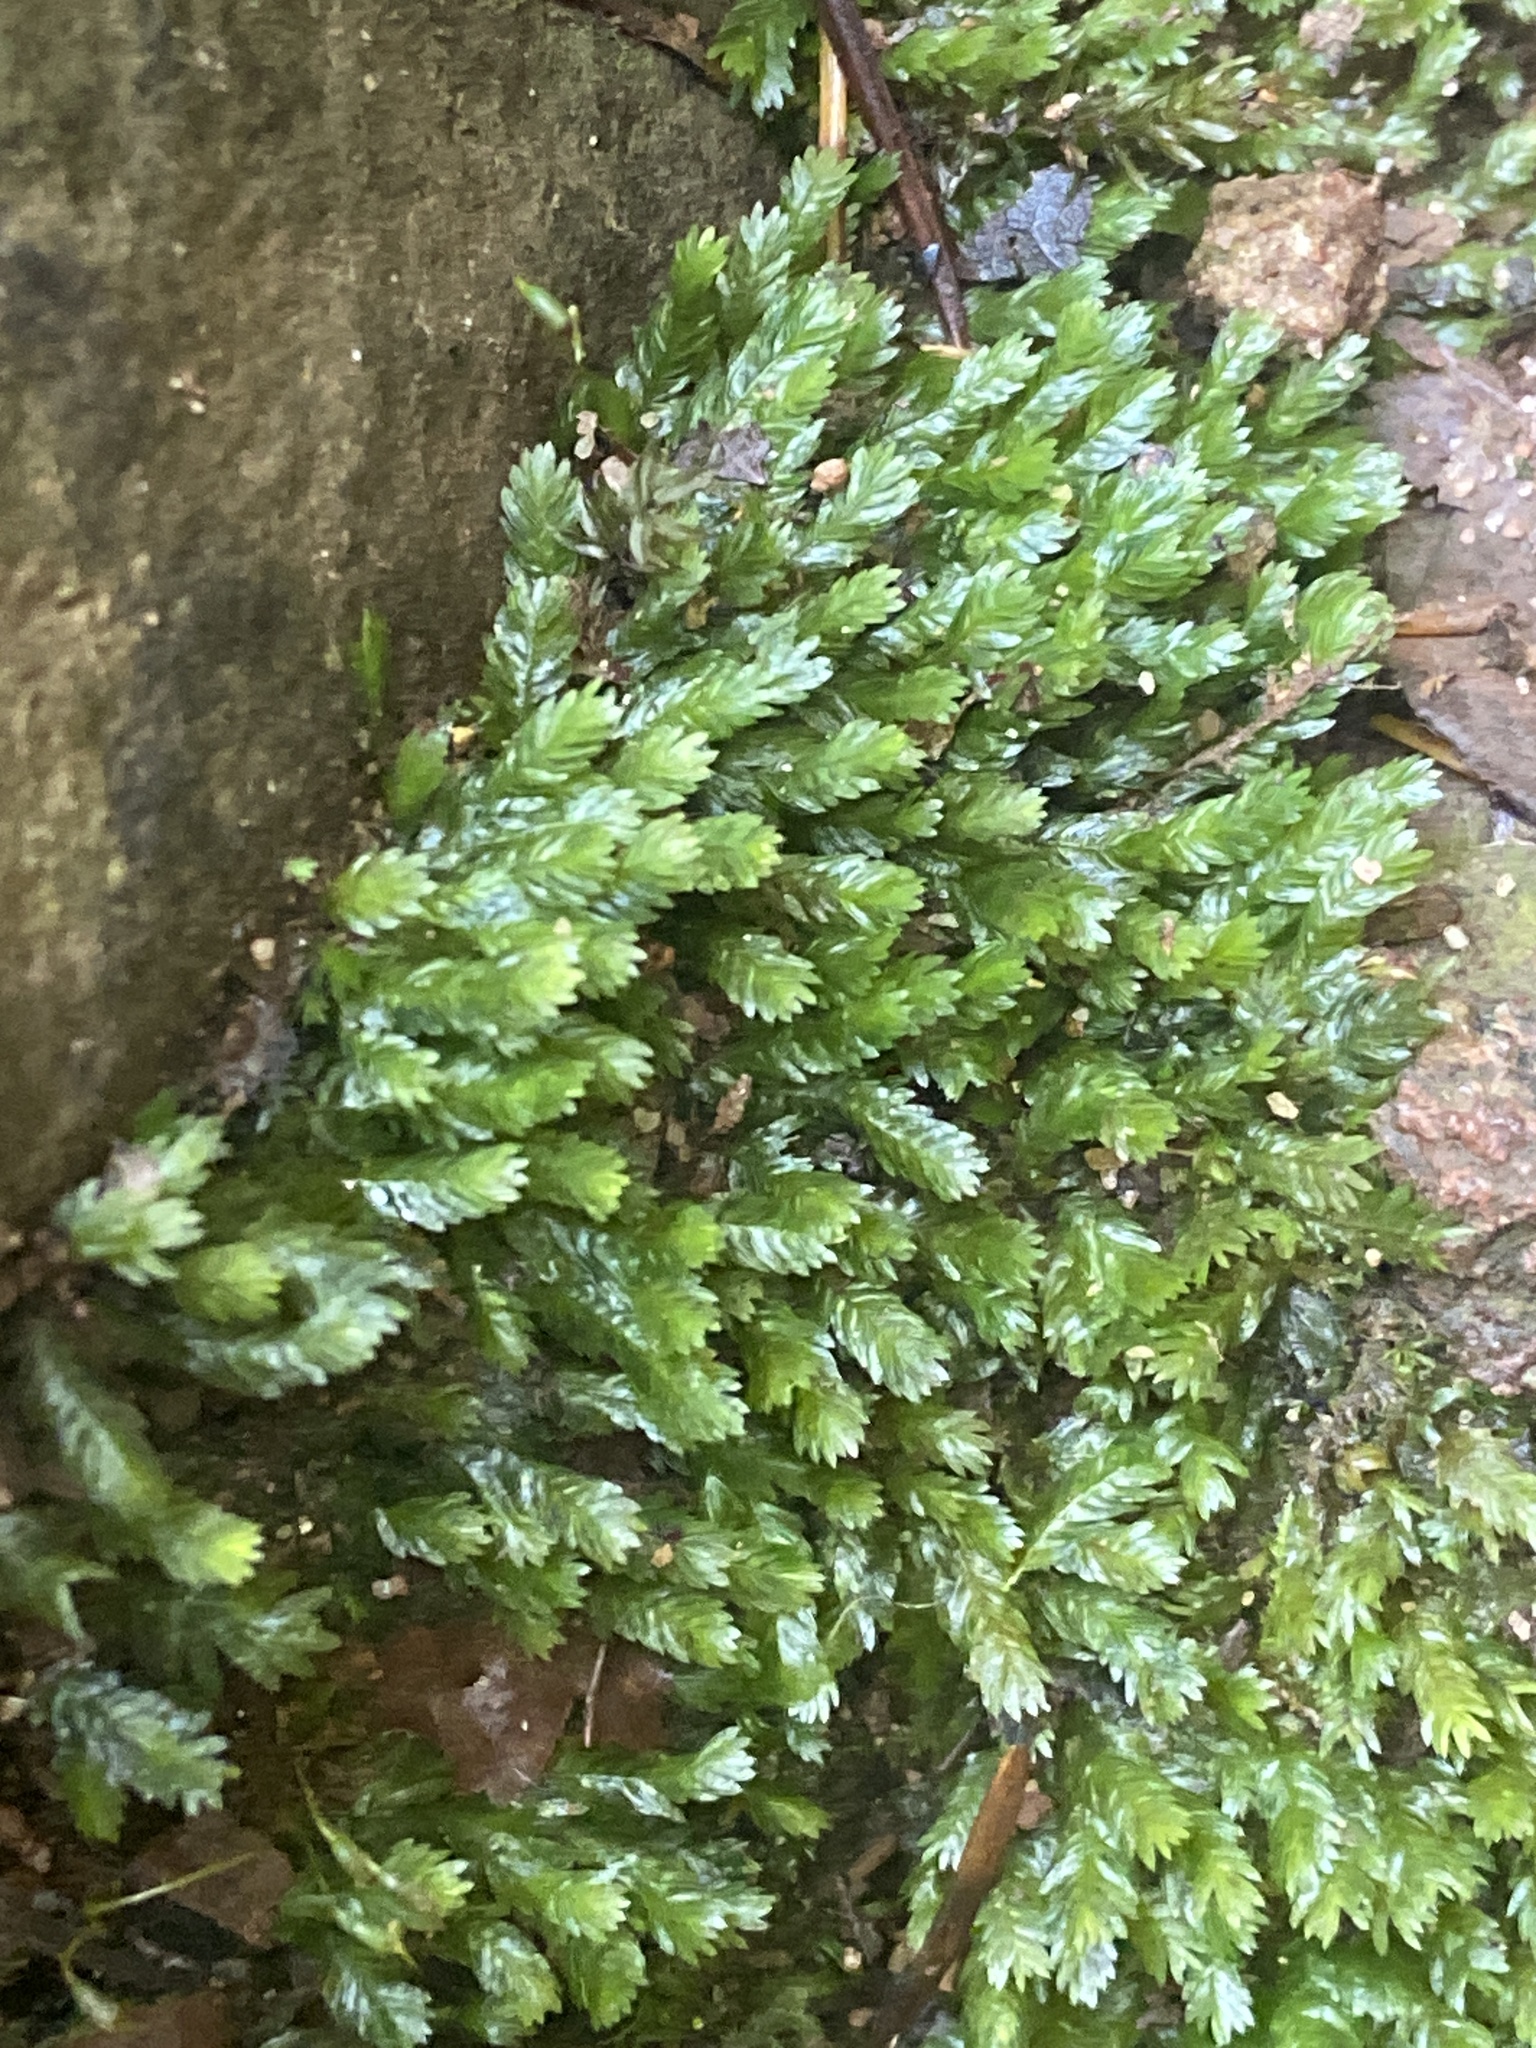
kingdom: Plantae
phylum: Bryophyta
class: Bryopsida
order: Dicranales
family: Fissidentaceae
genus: Fissidens
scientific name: Fissidens dubius
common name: Rock pocket moss
